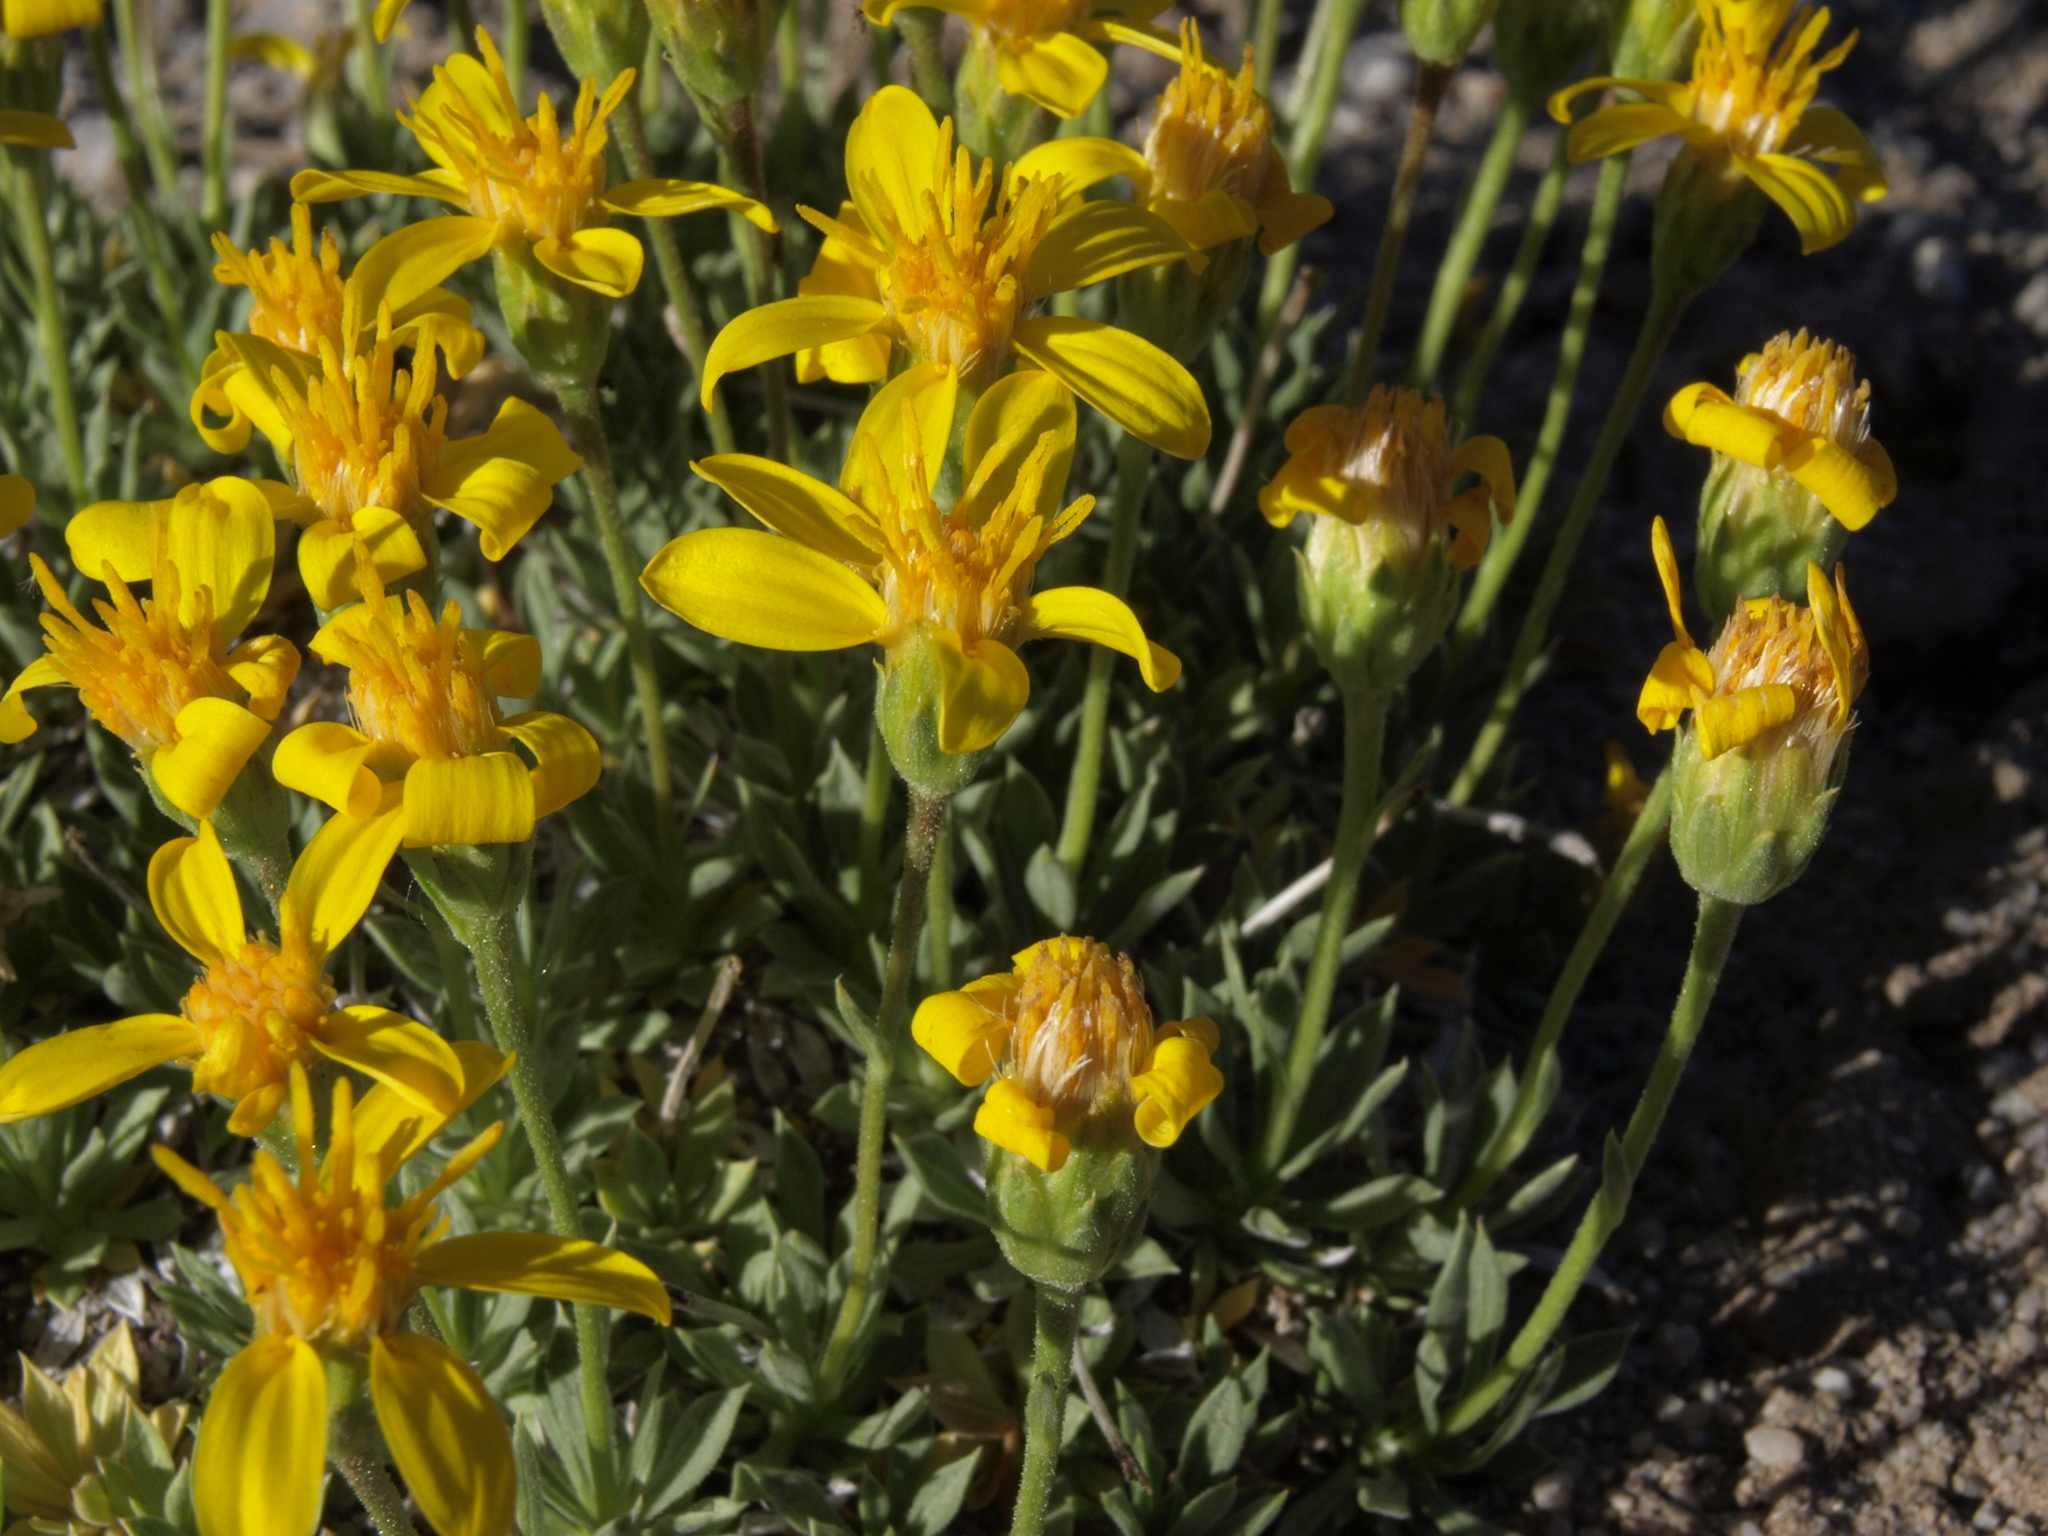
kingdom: Plantae
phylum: Tracheophyta
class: Magnoliopsida
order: Asterales
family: Asteraceae
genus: Stenotus
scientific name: Stenotus acaulis
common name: Stemless goldenweed
